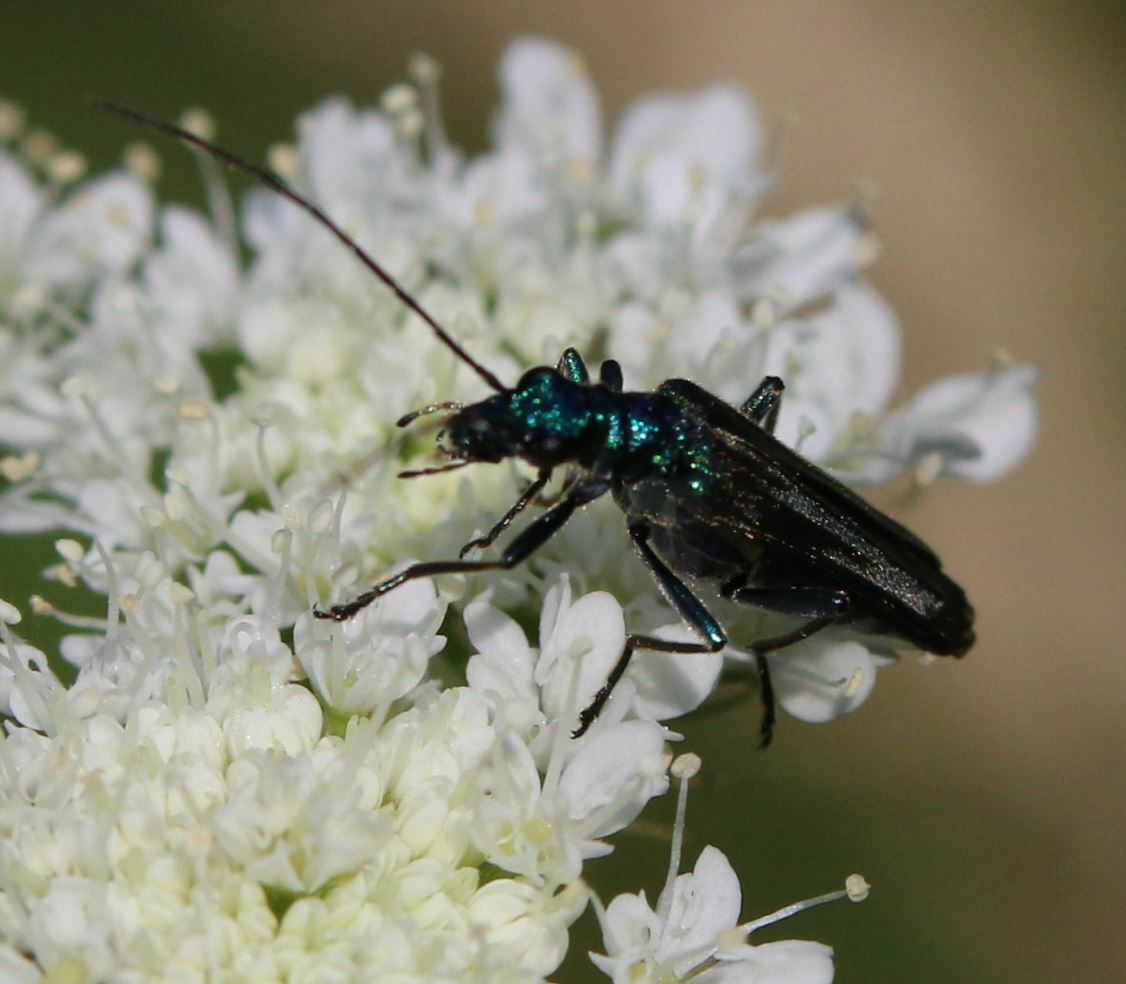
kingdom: Animalia
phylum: Arthropoda
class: Insecta
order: Coleoptera
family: Oedemeridae
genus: Oedemera
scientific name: Oedemera nobilis
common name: Swollen-thighed beetle
